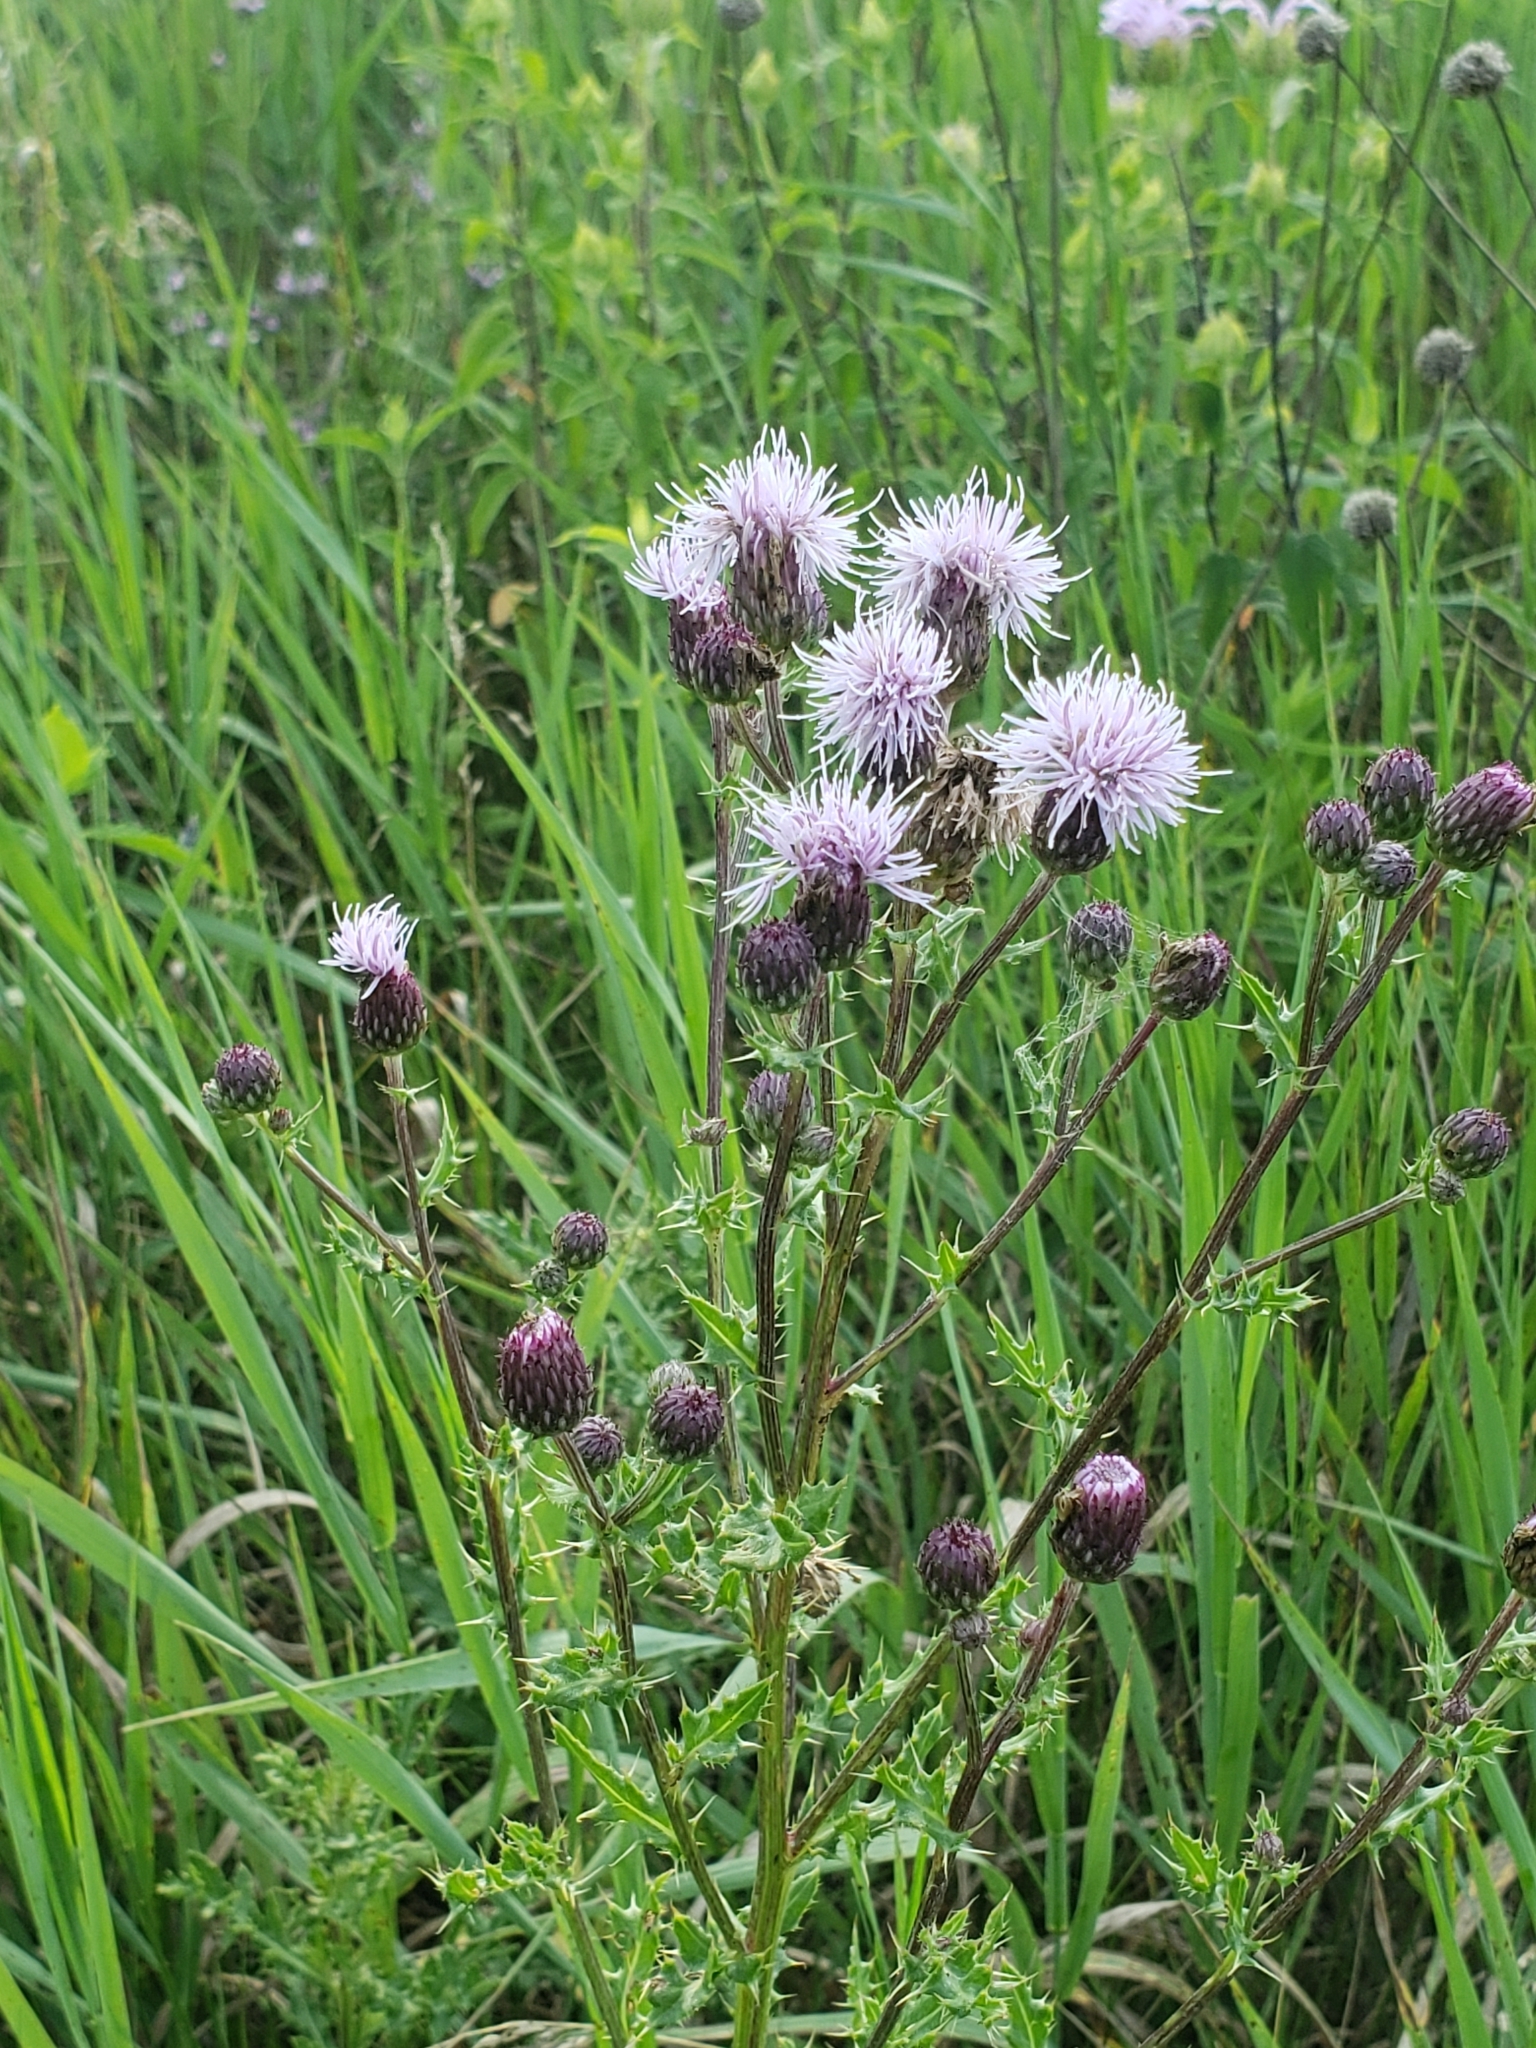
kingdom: Plantae
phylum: Tracheophyta
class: Magnoliopsida
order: Asterales
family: Asteraceae
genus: Cirsium
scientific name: Cirsium arvense
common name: Creeping thistle
